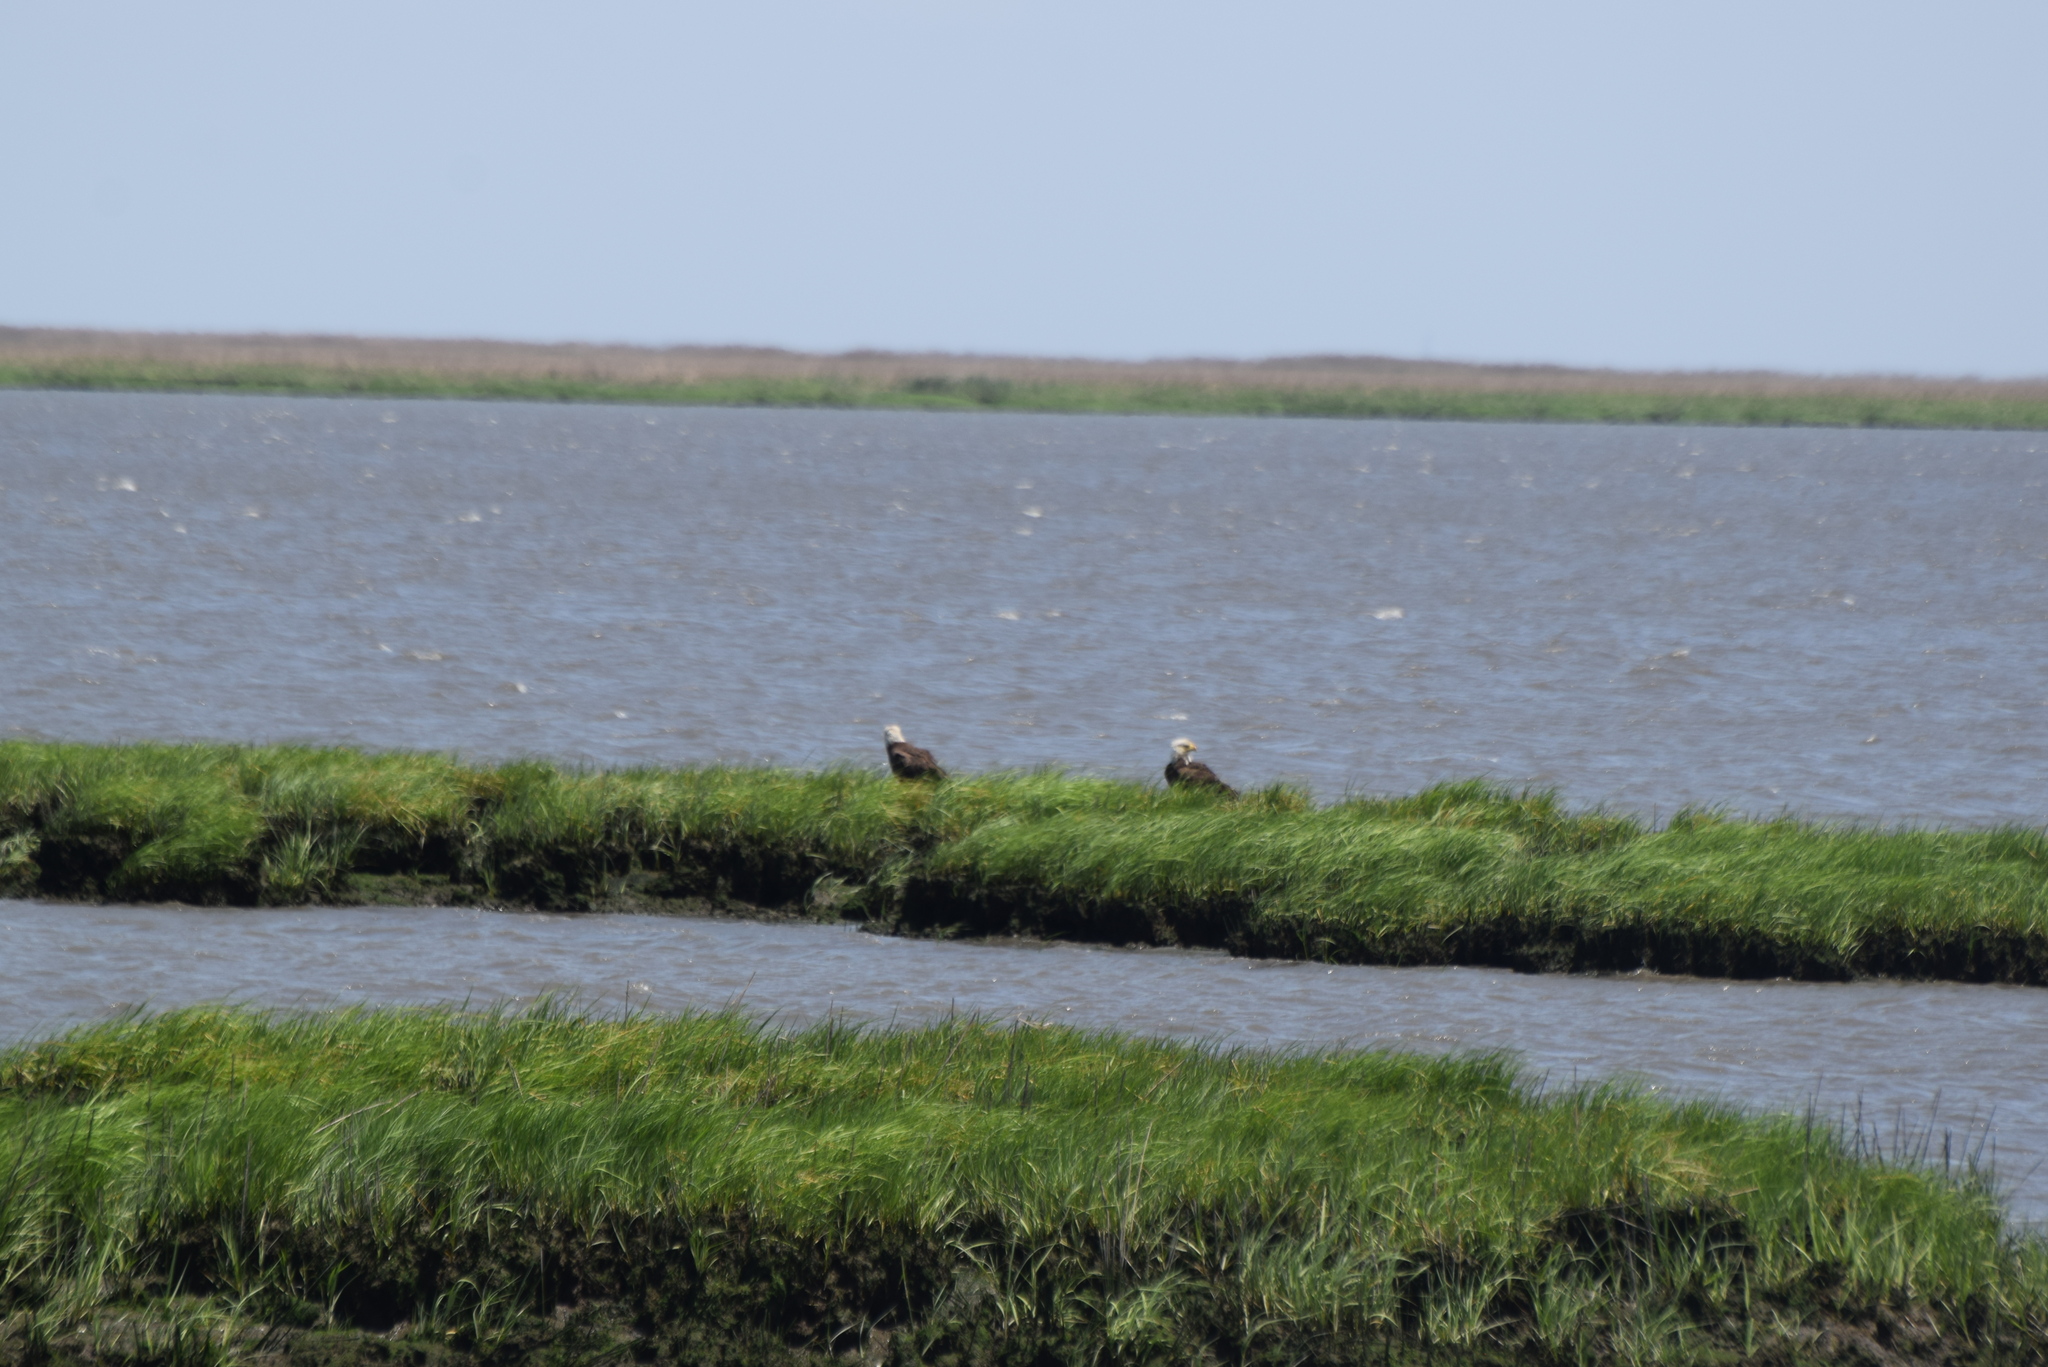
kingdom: Animalia
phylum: Chordata
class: Aves
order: Accipitriformes
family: Accipitridae
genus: Haliaeetus
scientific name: Haliaeetus leucocephalus
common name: Bald eagle
